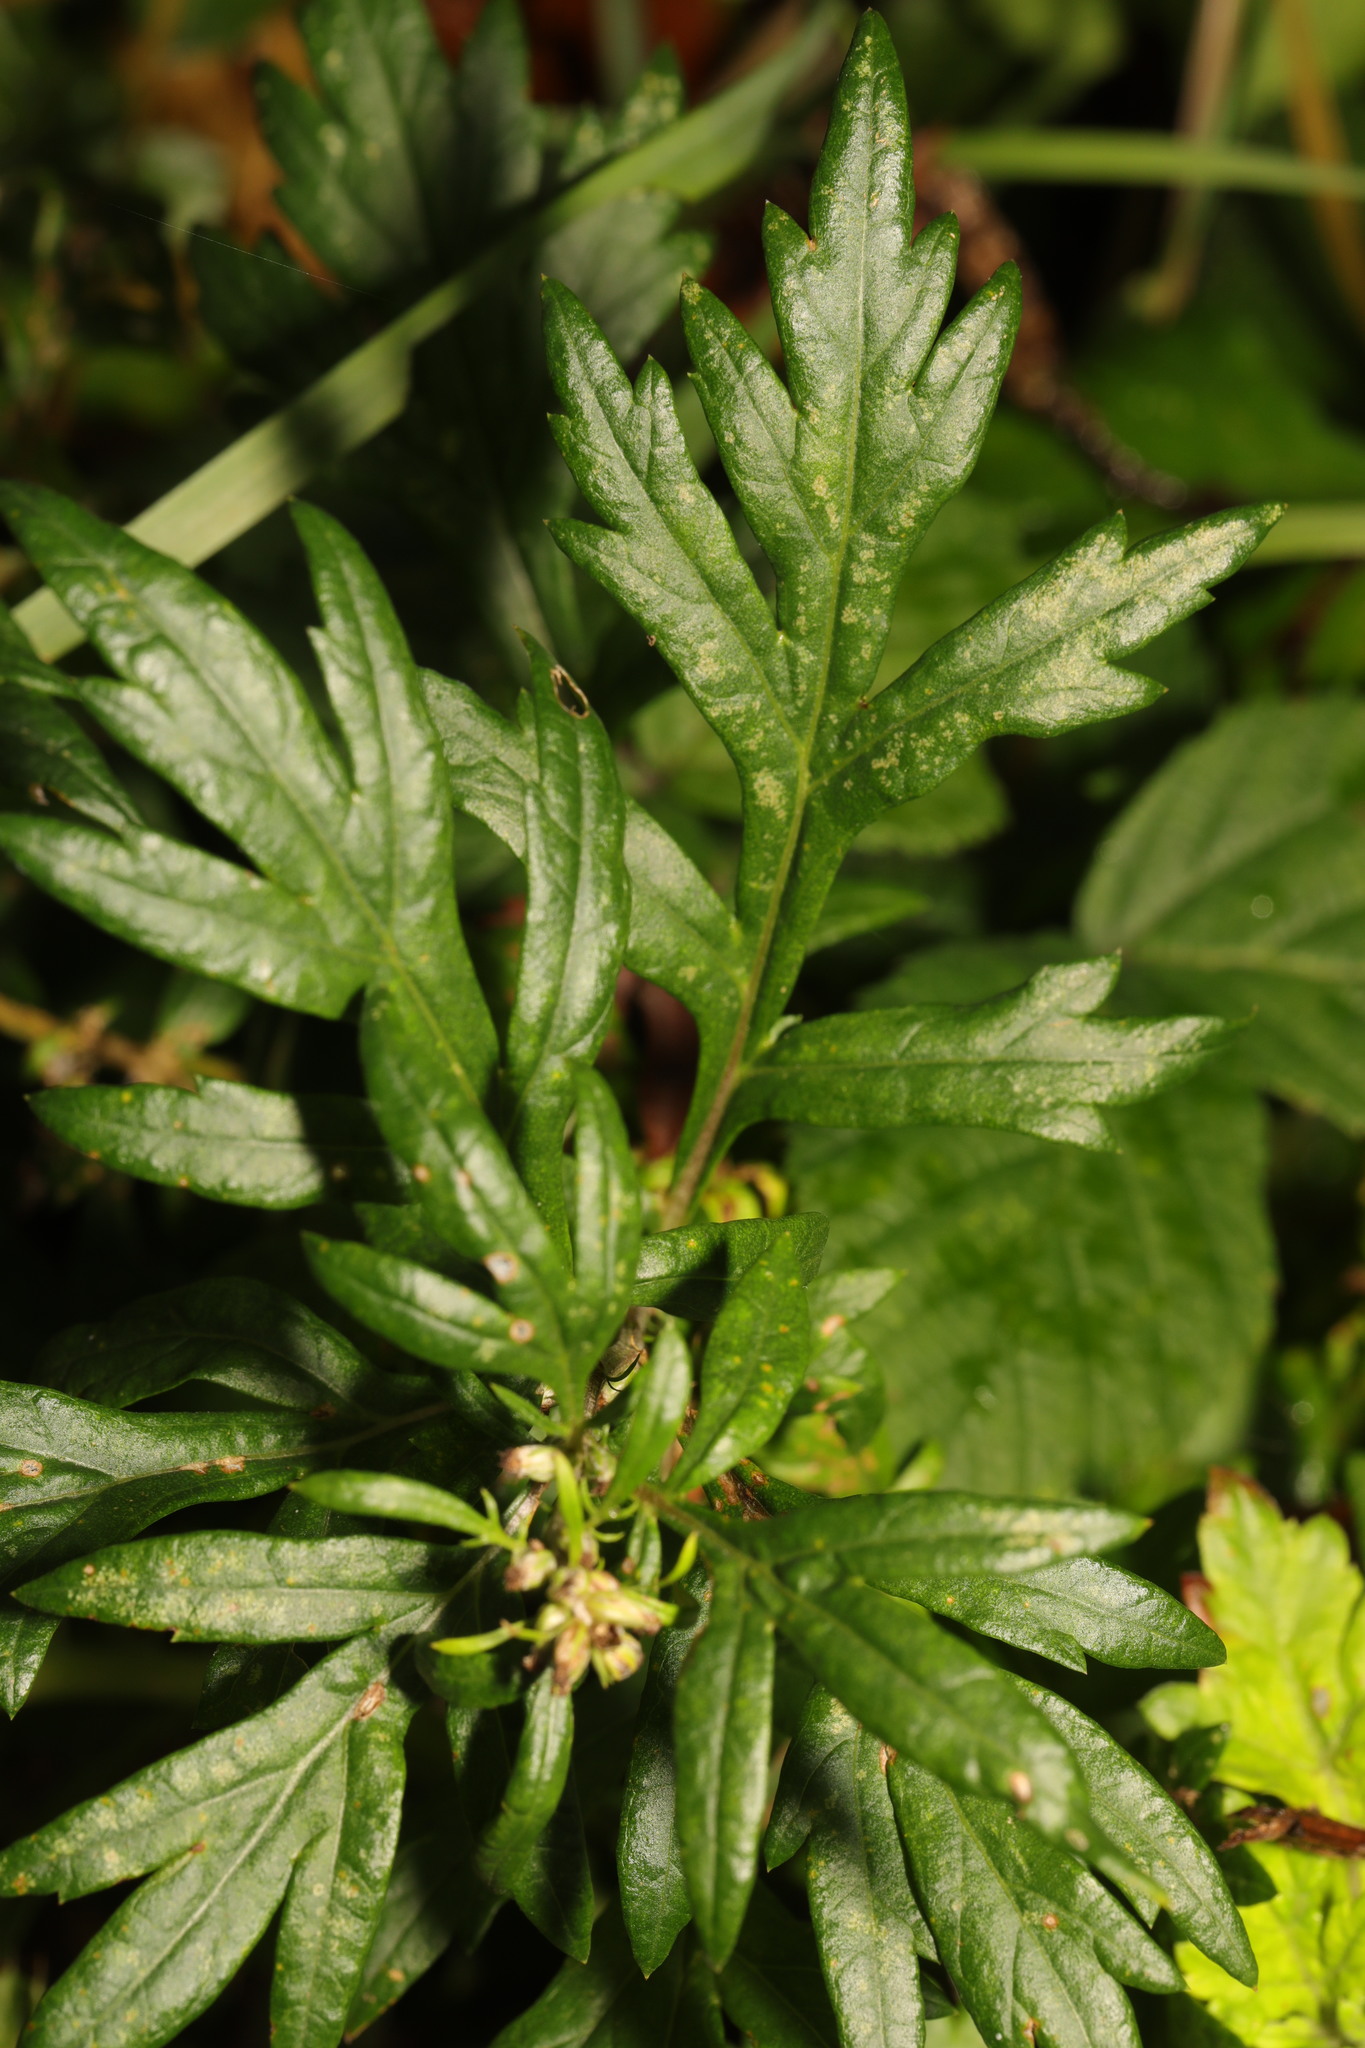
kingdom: Plantae
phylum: Tracheophyta
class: Magnoliopsida
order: Asterales
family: Asteraceae
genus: Artemisia
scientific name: Artemisia vulgaris
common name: Mugwort
